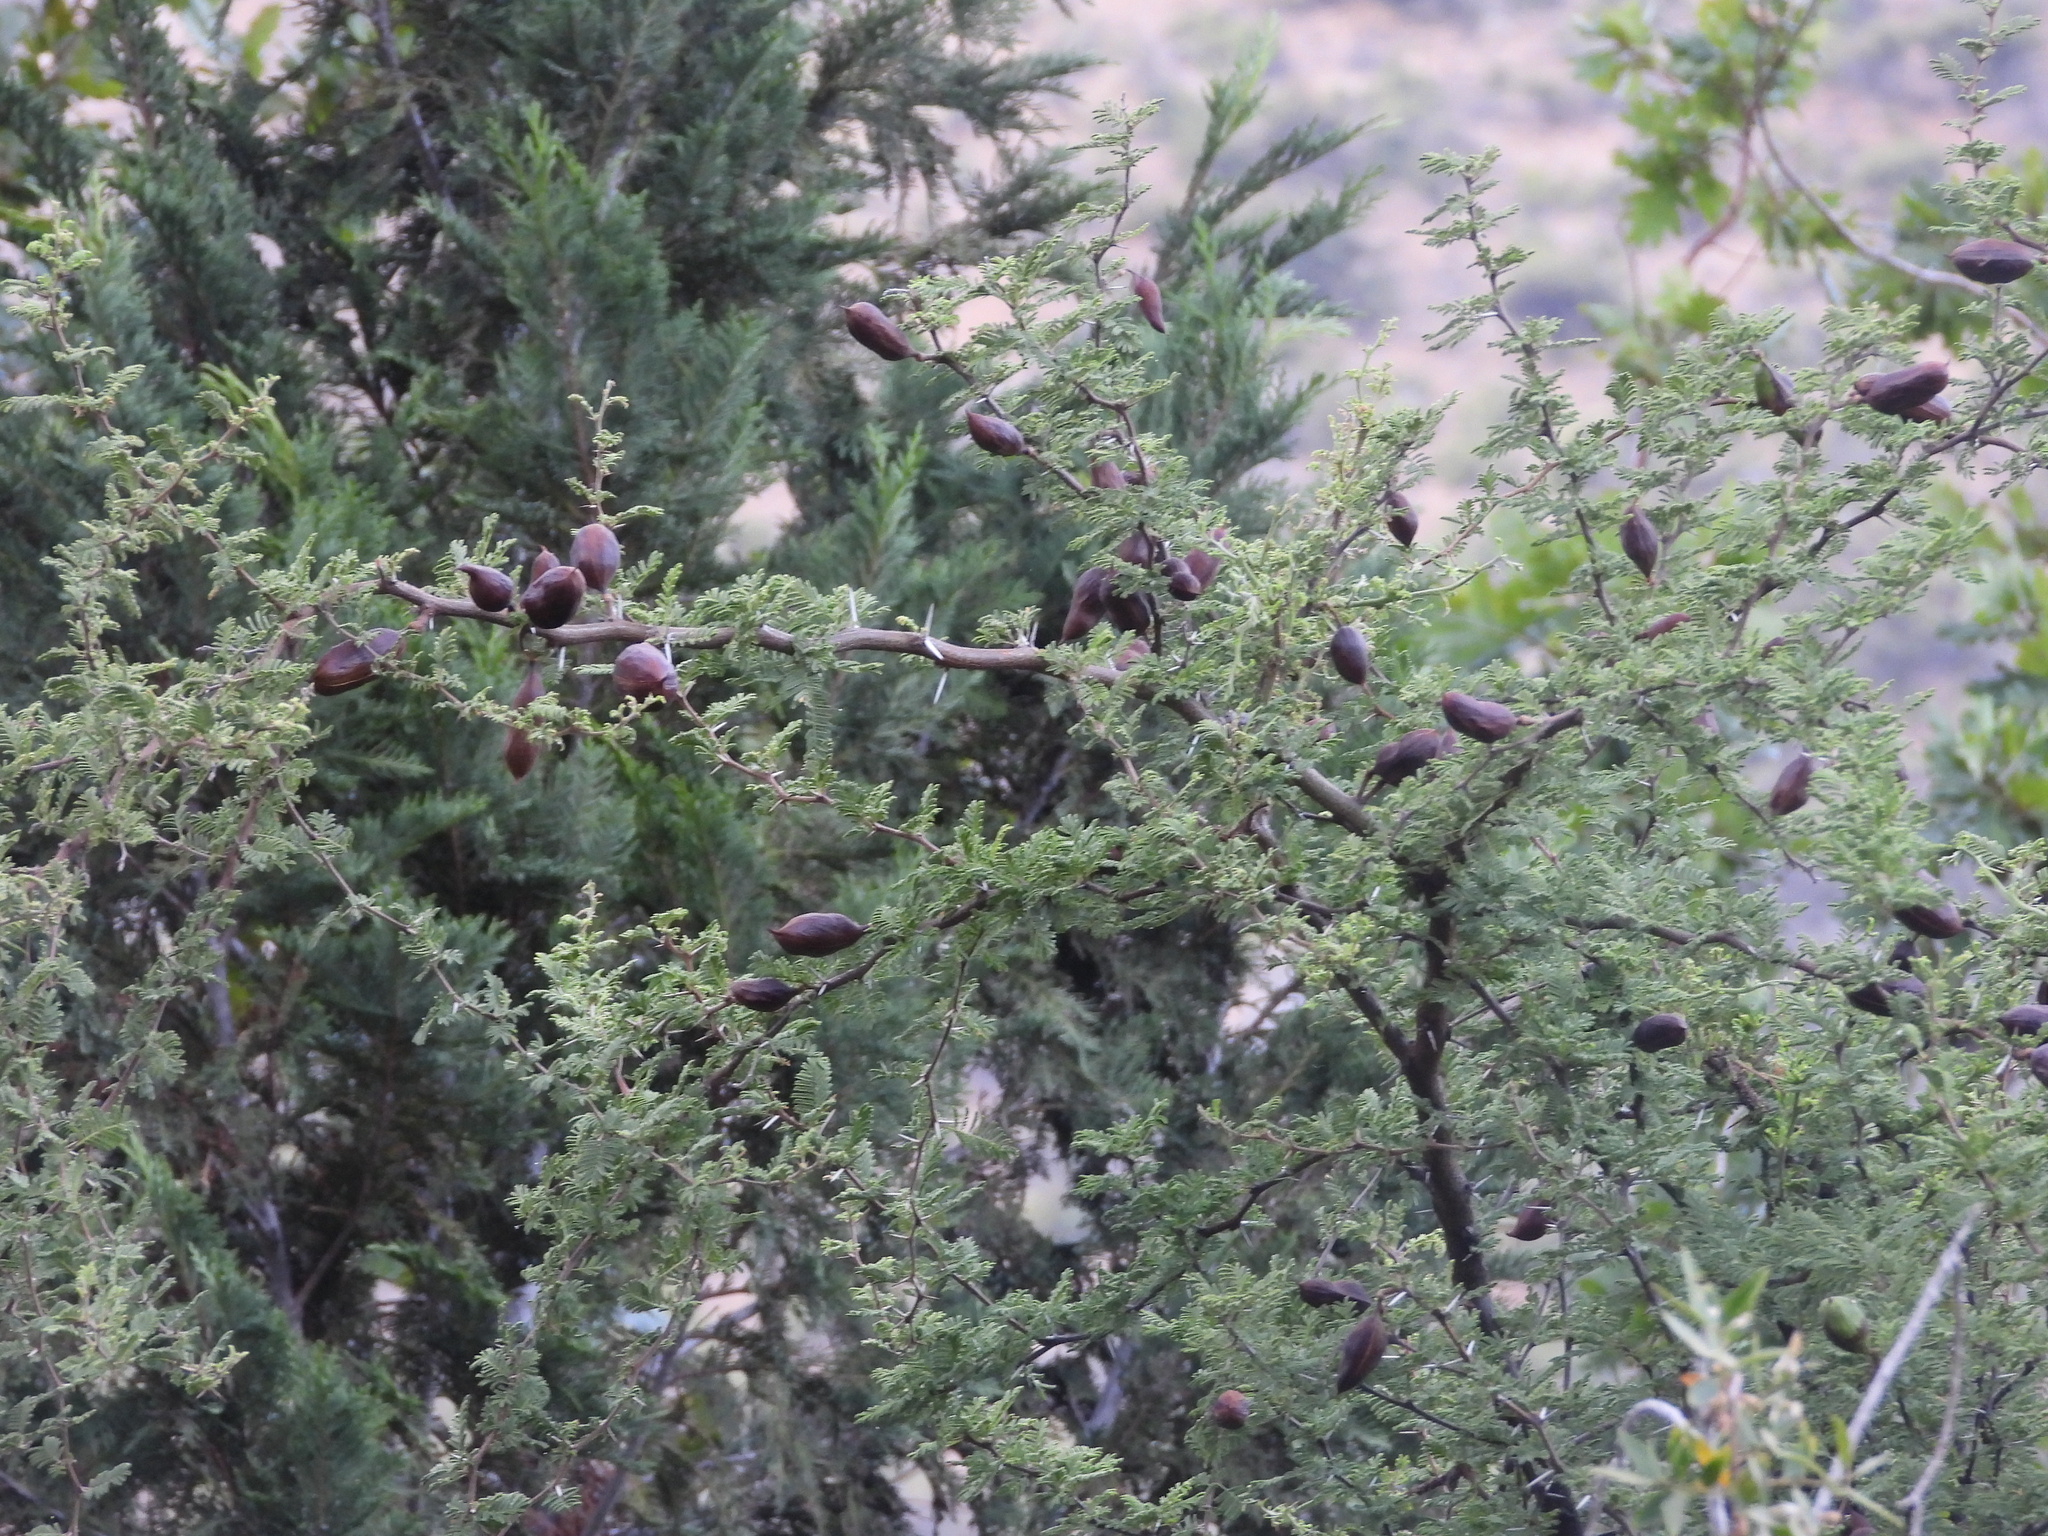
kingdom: Plantae
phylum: Tracheophyta
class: Magnoliopsida
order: Fabales
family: Fabaceae
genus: Vachellia
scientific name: Vachellia caven
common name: Roman cassie
